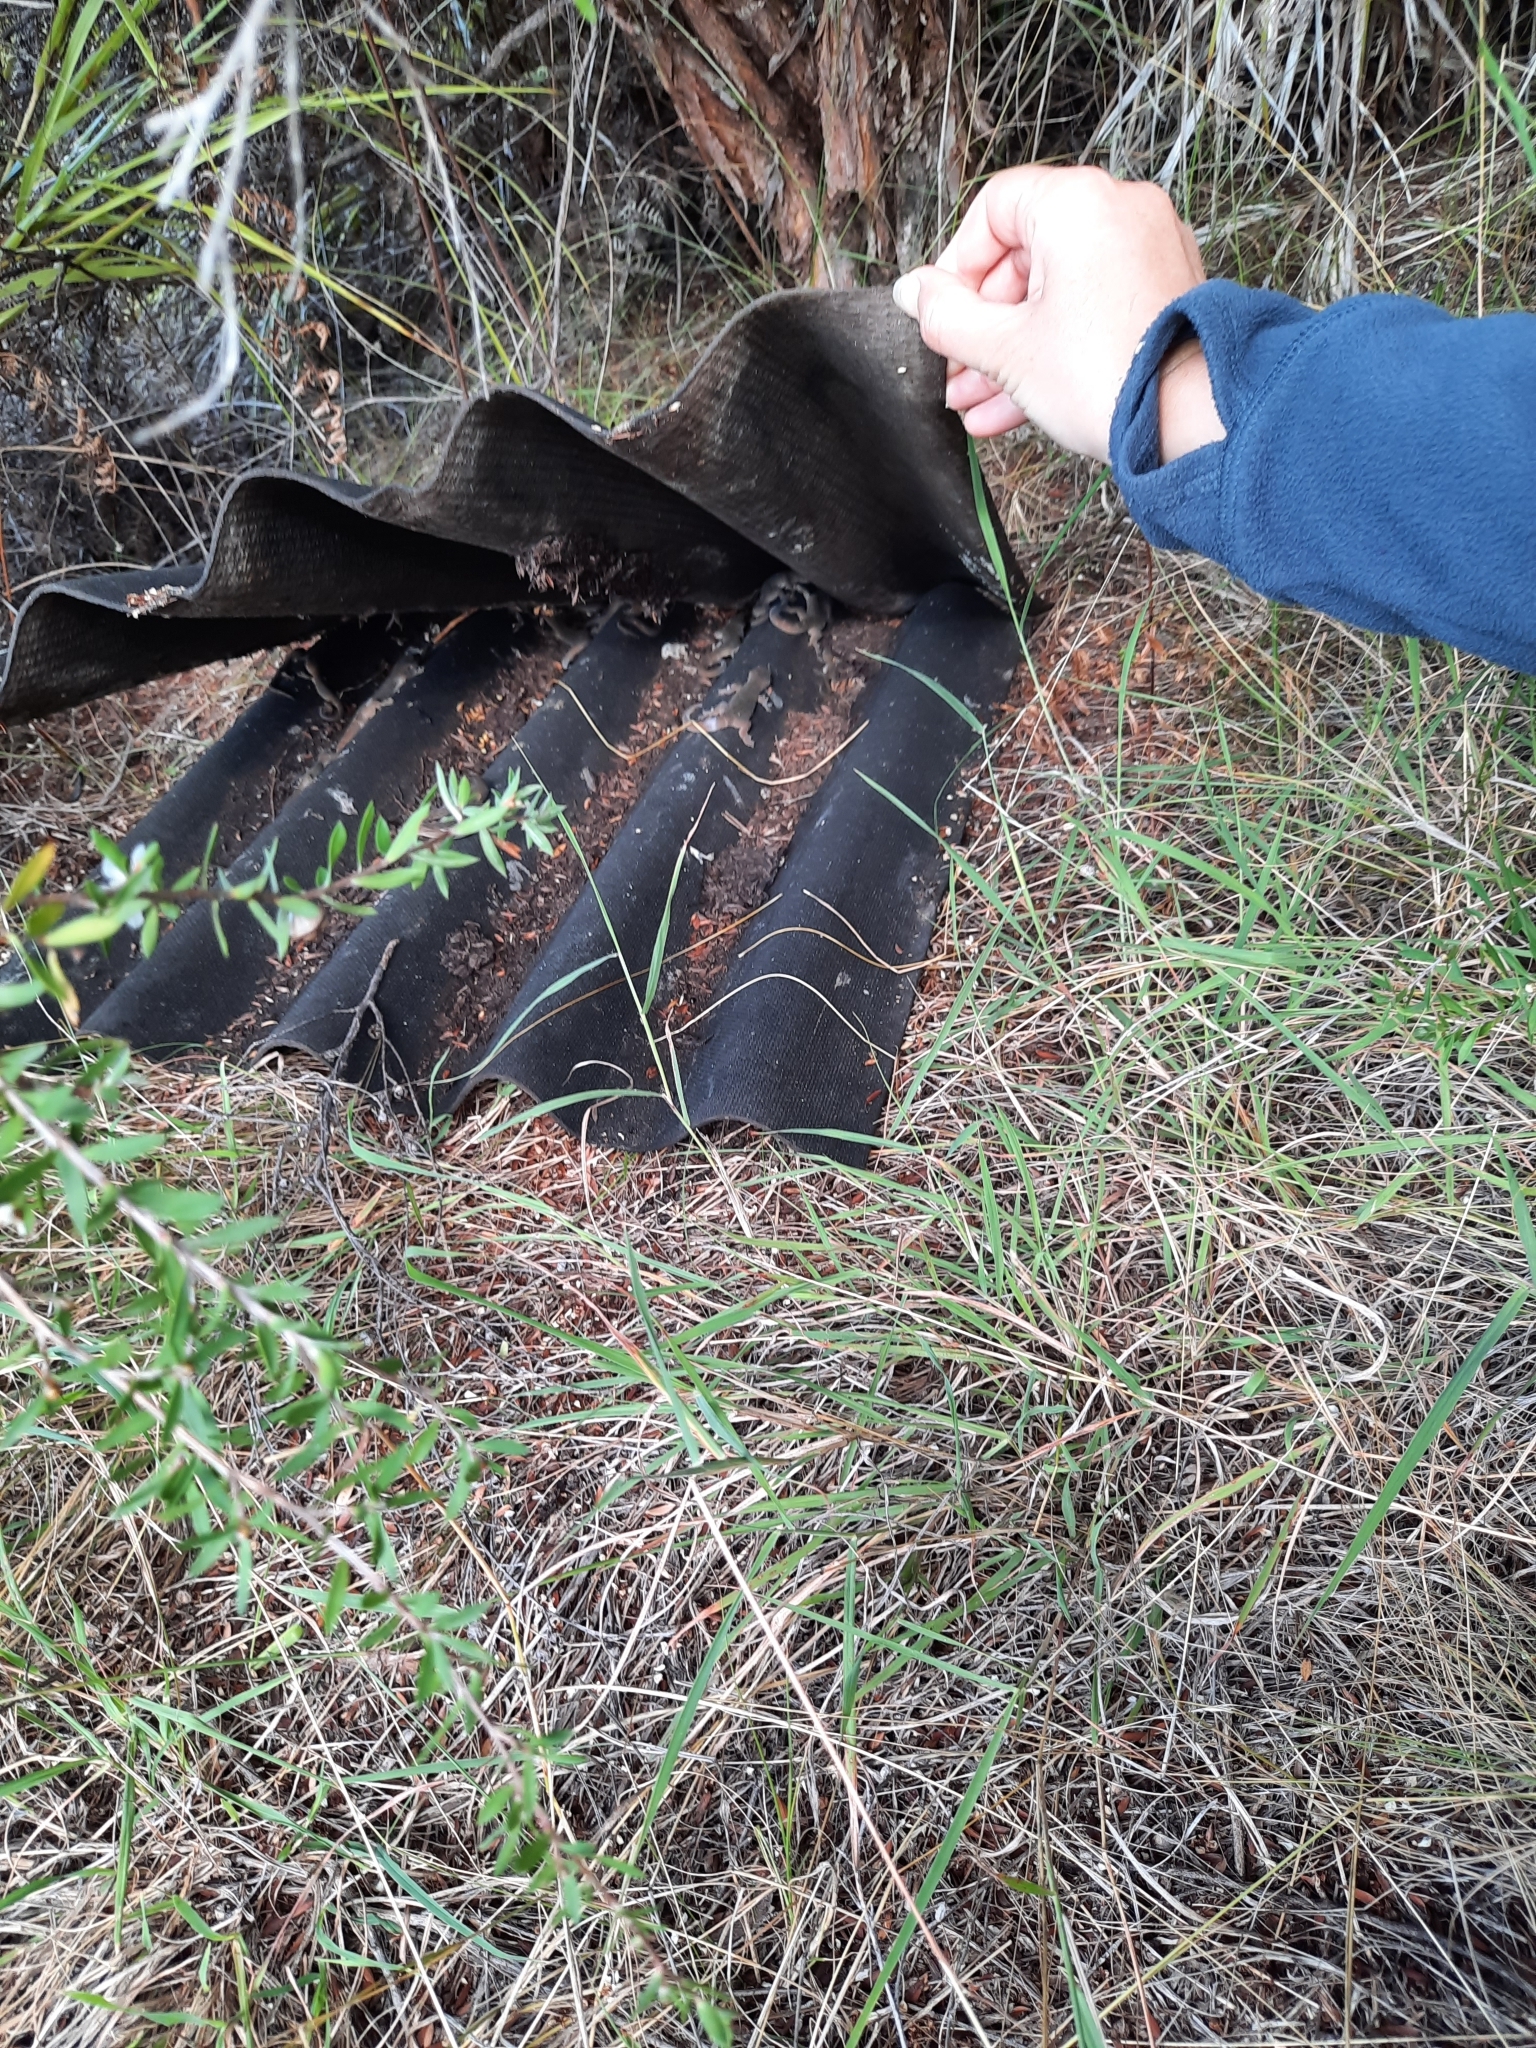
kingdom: Animalia
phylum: Chordata
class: Squamata
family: Diplodactylidae
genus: Woodworthia
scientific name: Woodworthia maculata
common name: Raukawa gecko
